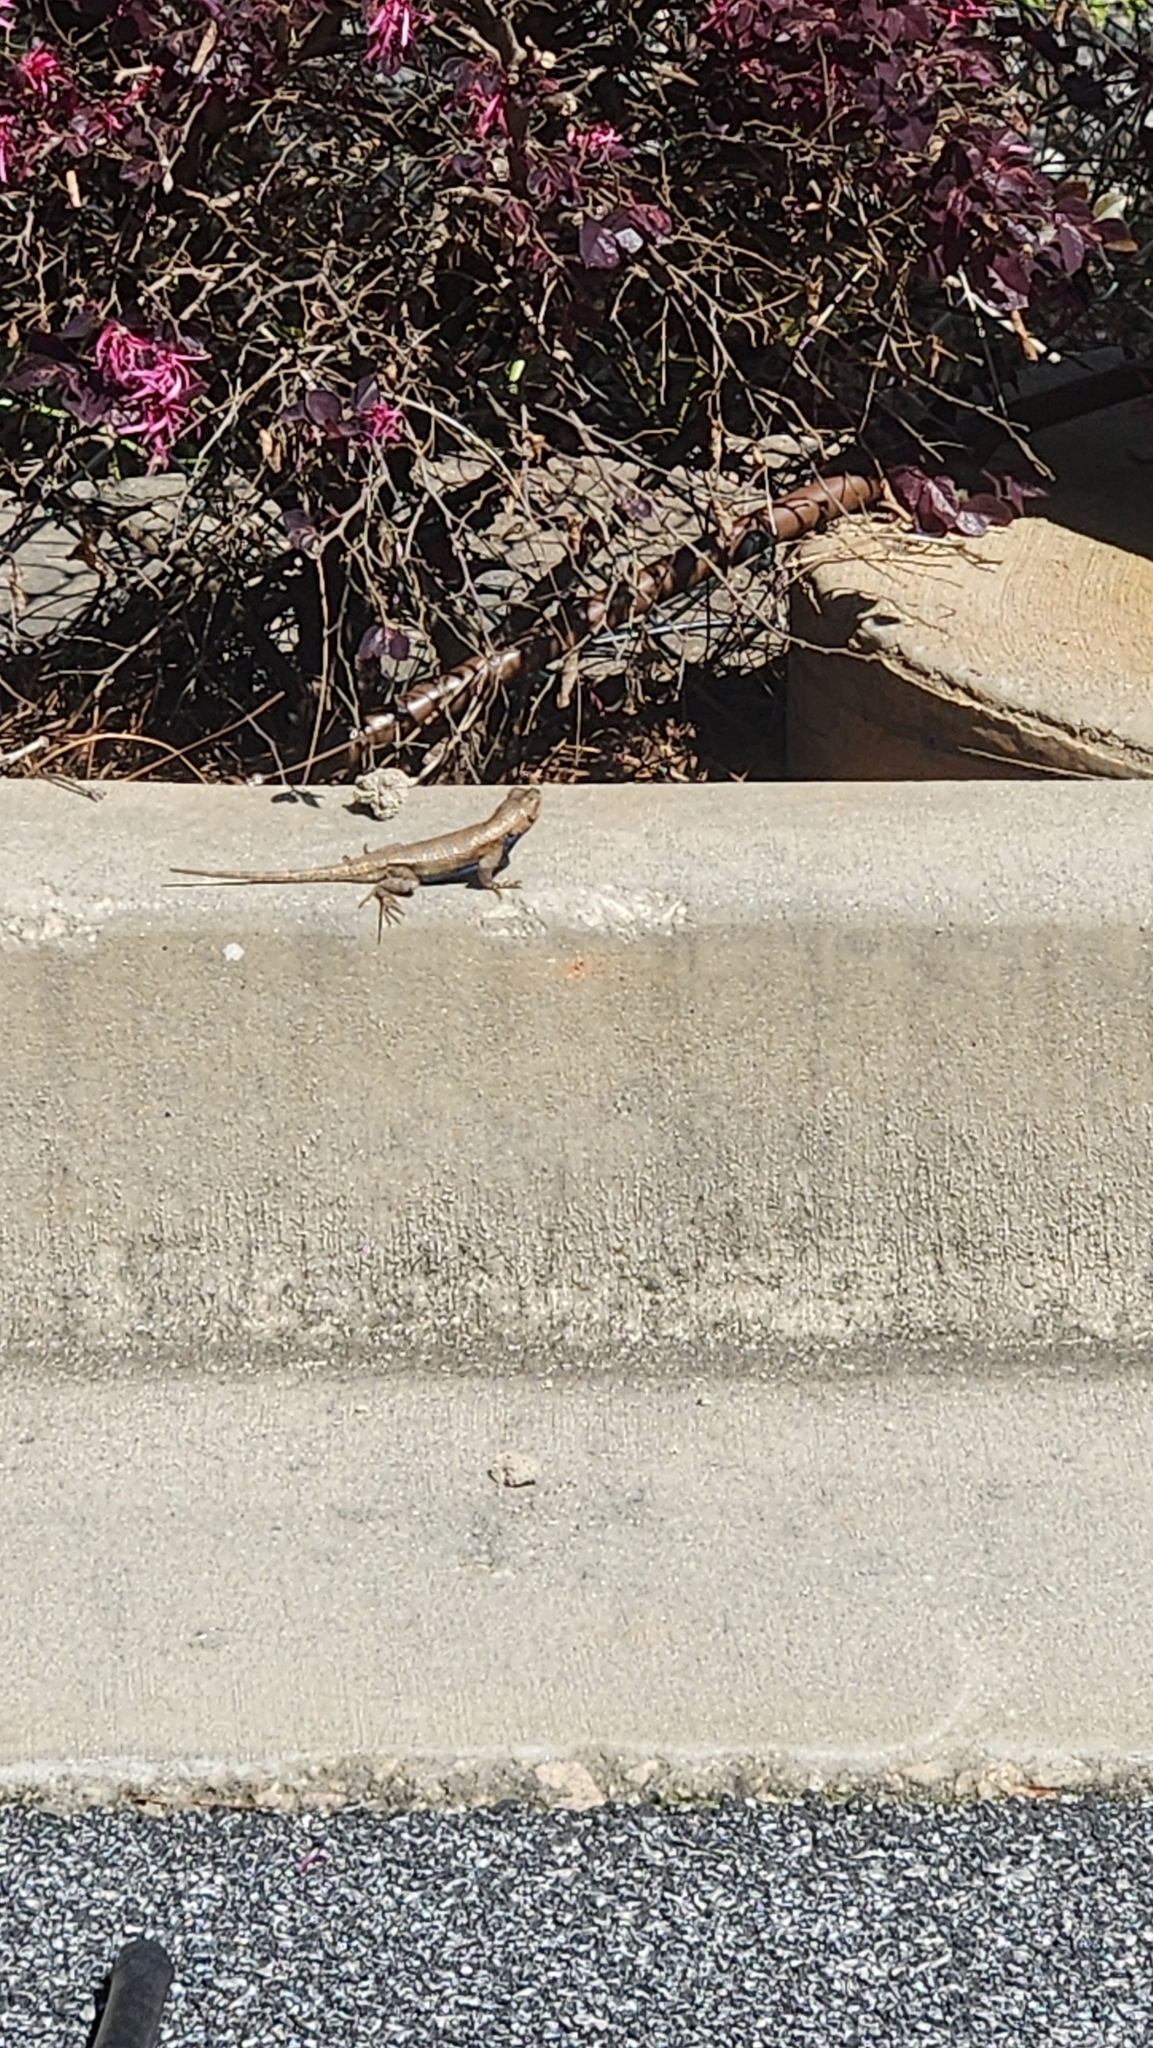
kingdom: Animalia
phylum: Chordata
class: Squamata
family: Phrynosomatidae
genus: Sceloporus
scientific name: Sceloporus undulatus
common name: Eastern fence lizard
